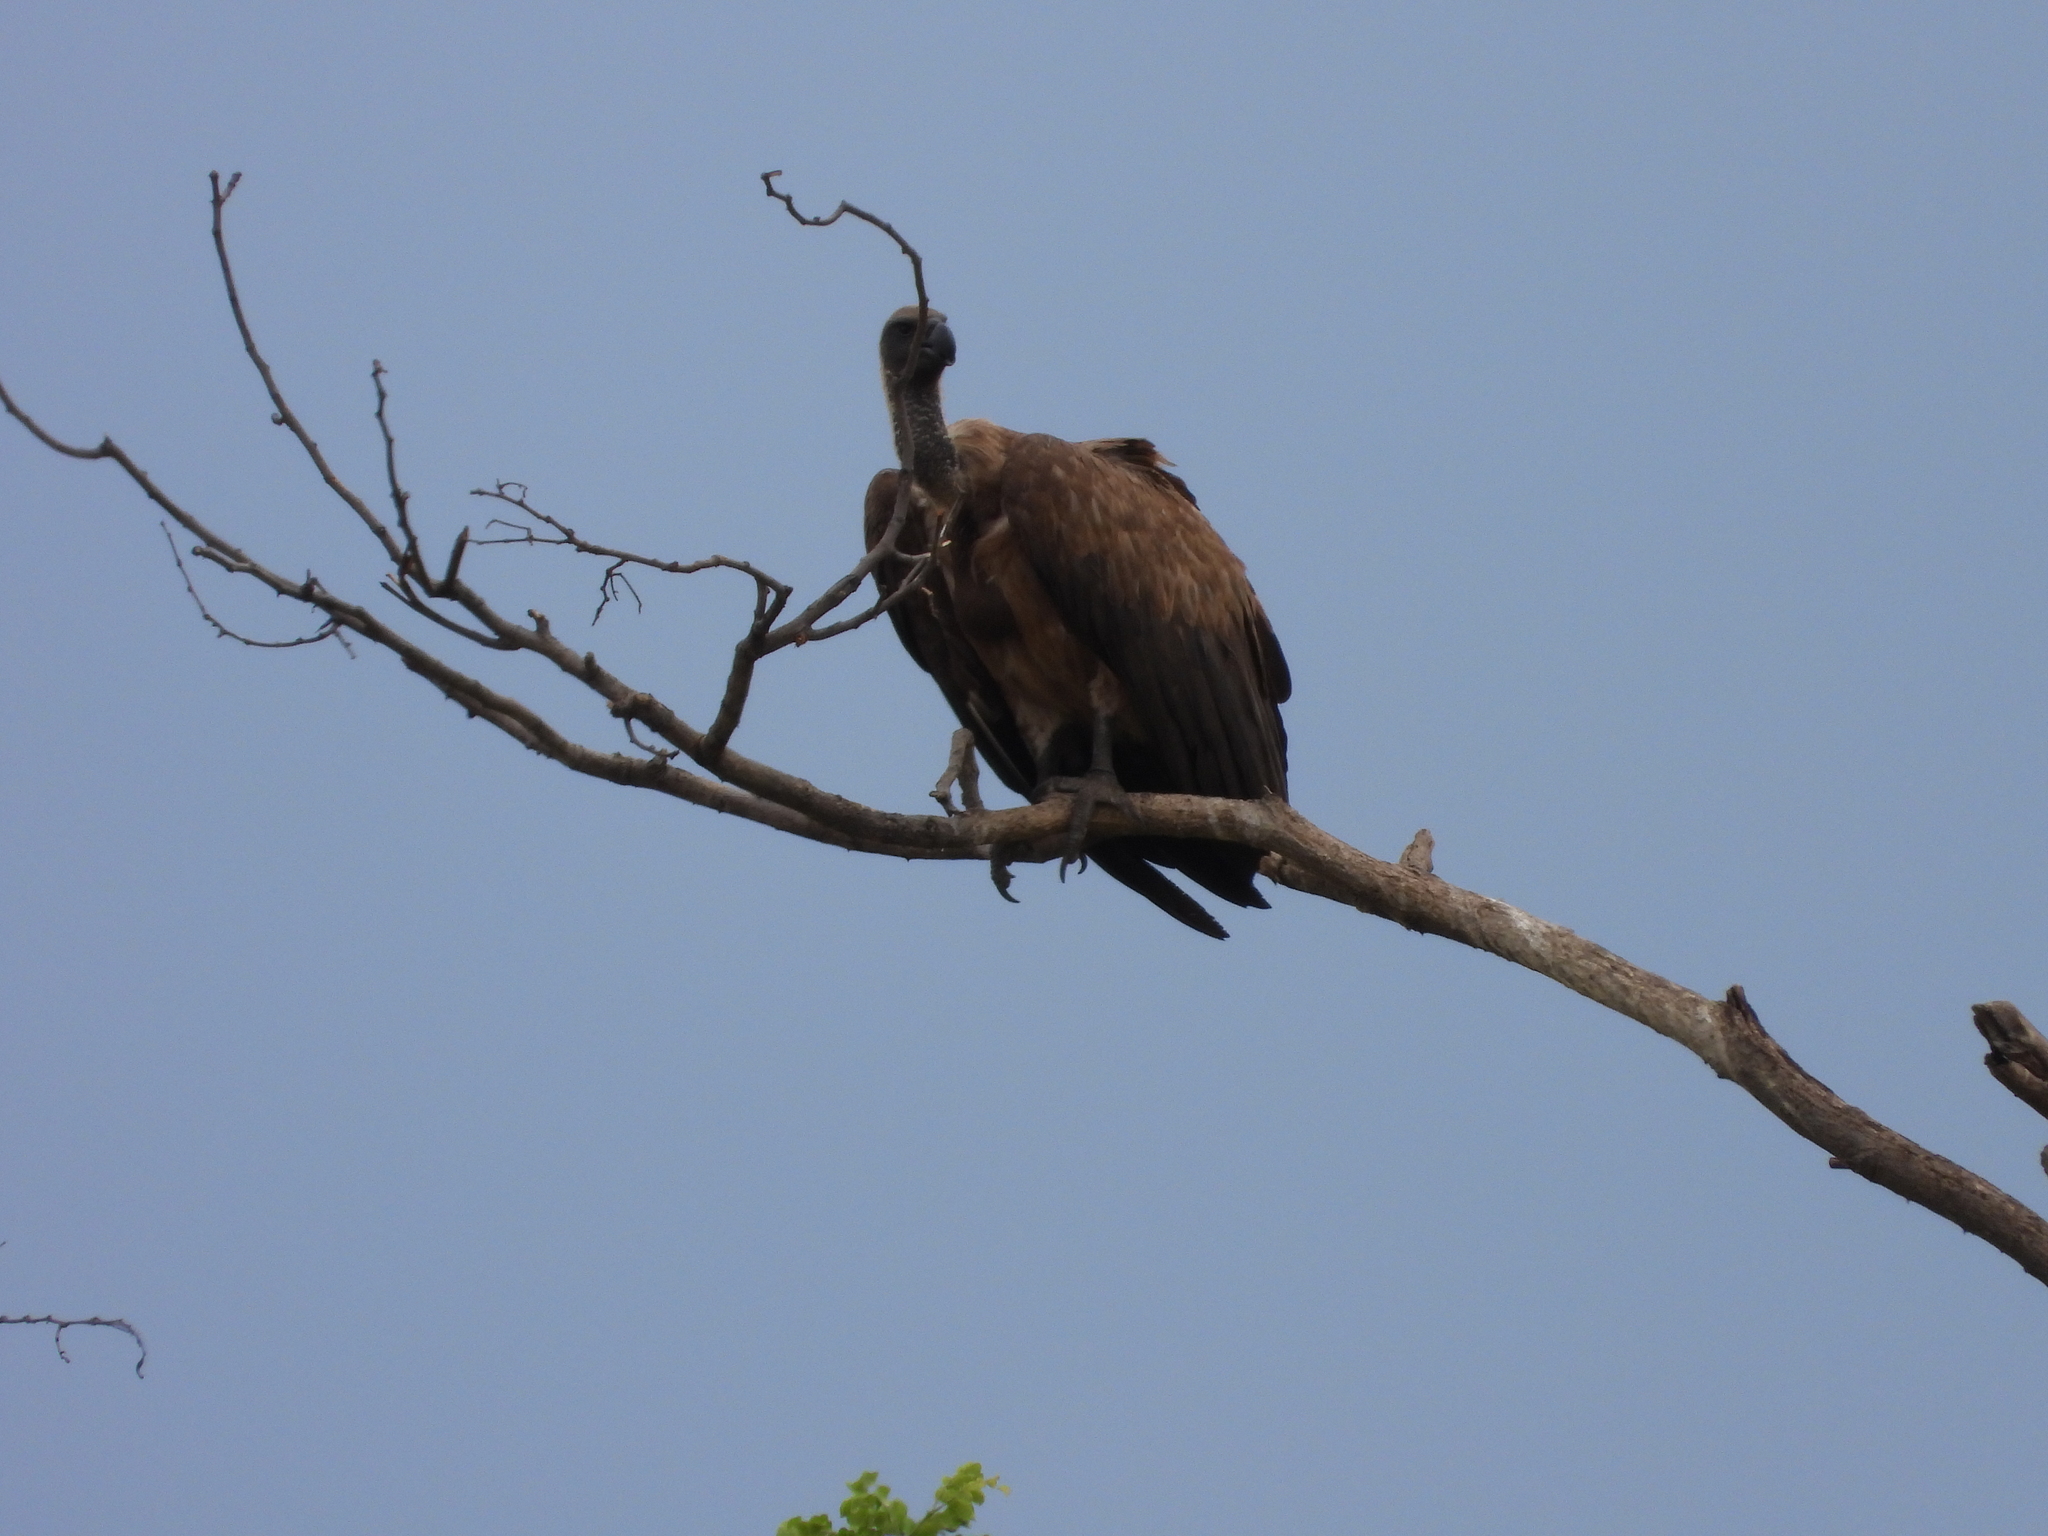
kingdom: Animalia
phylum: Chordata
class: Aves
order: Accipitriformes
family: Accipitridae
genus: Gyps
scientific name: Gyps africanus
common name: White-backed vulture
